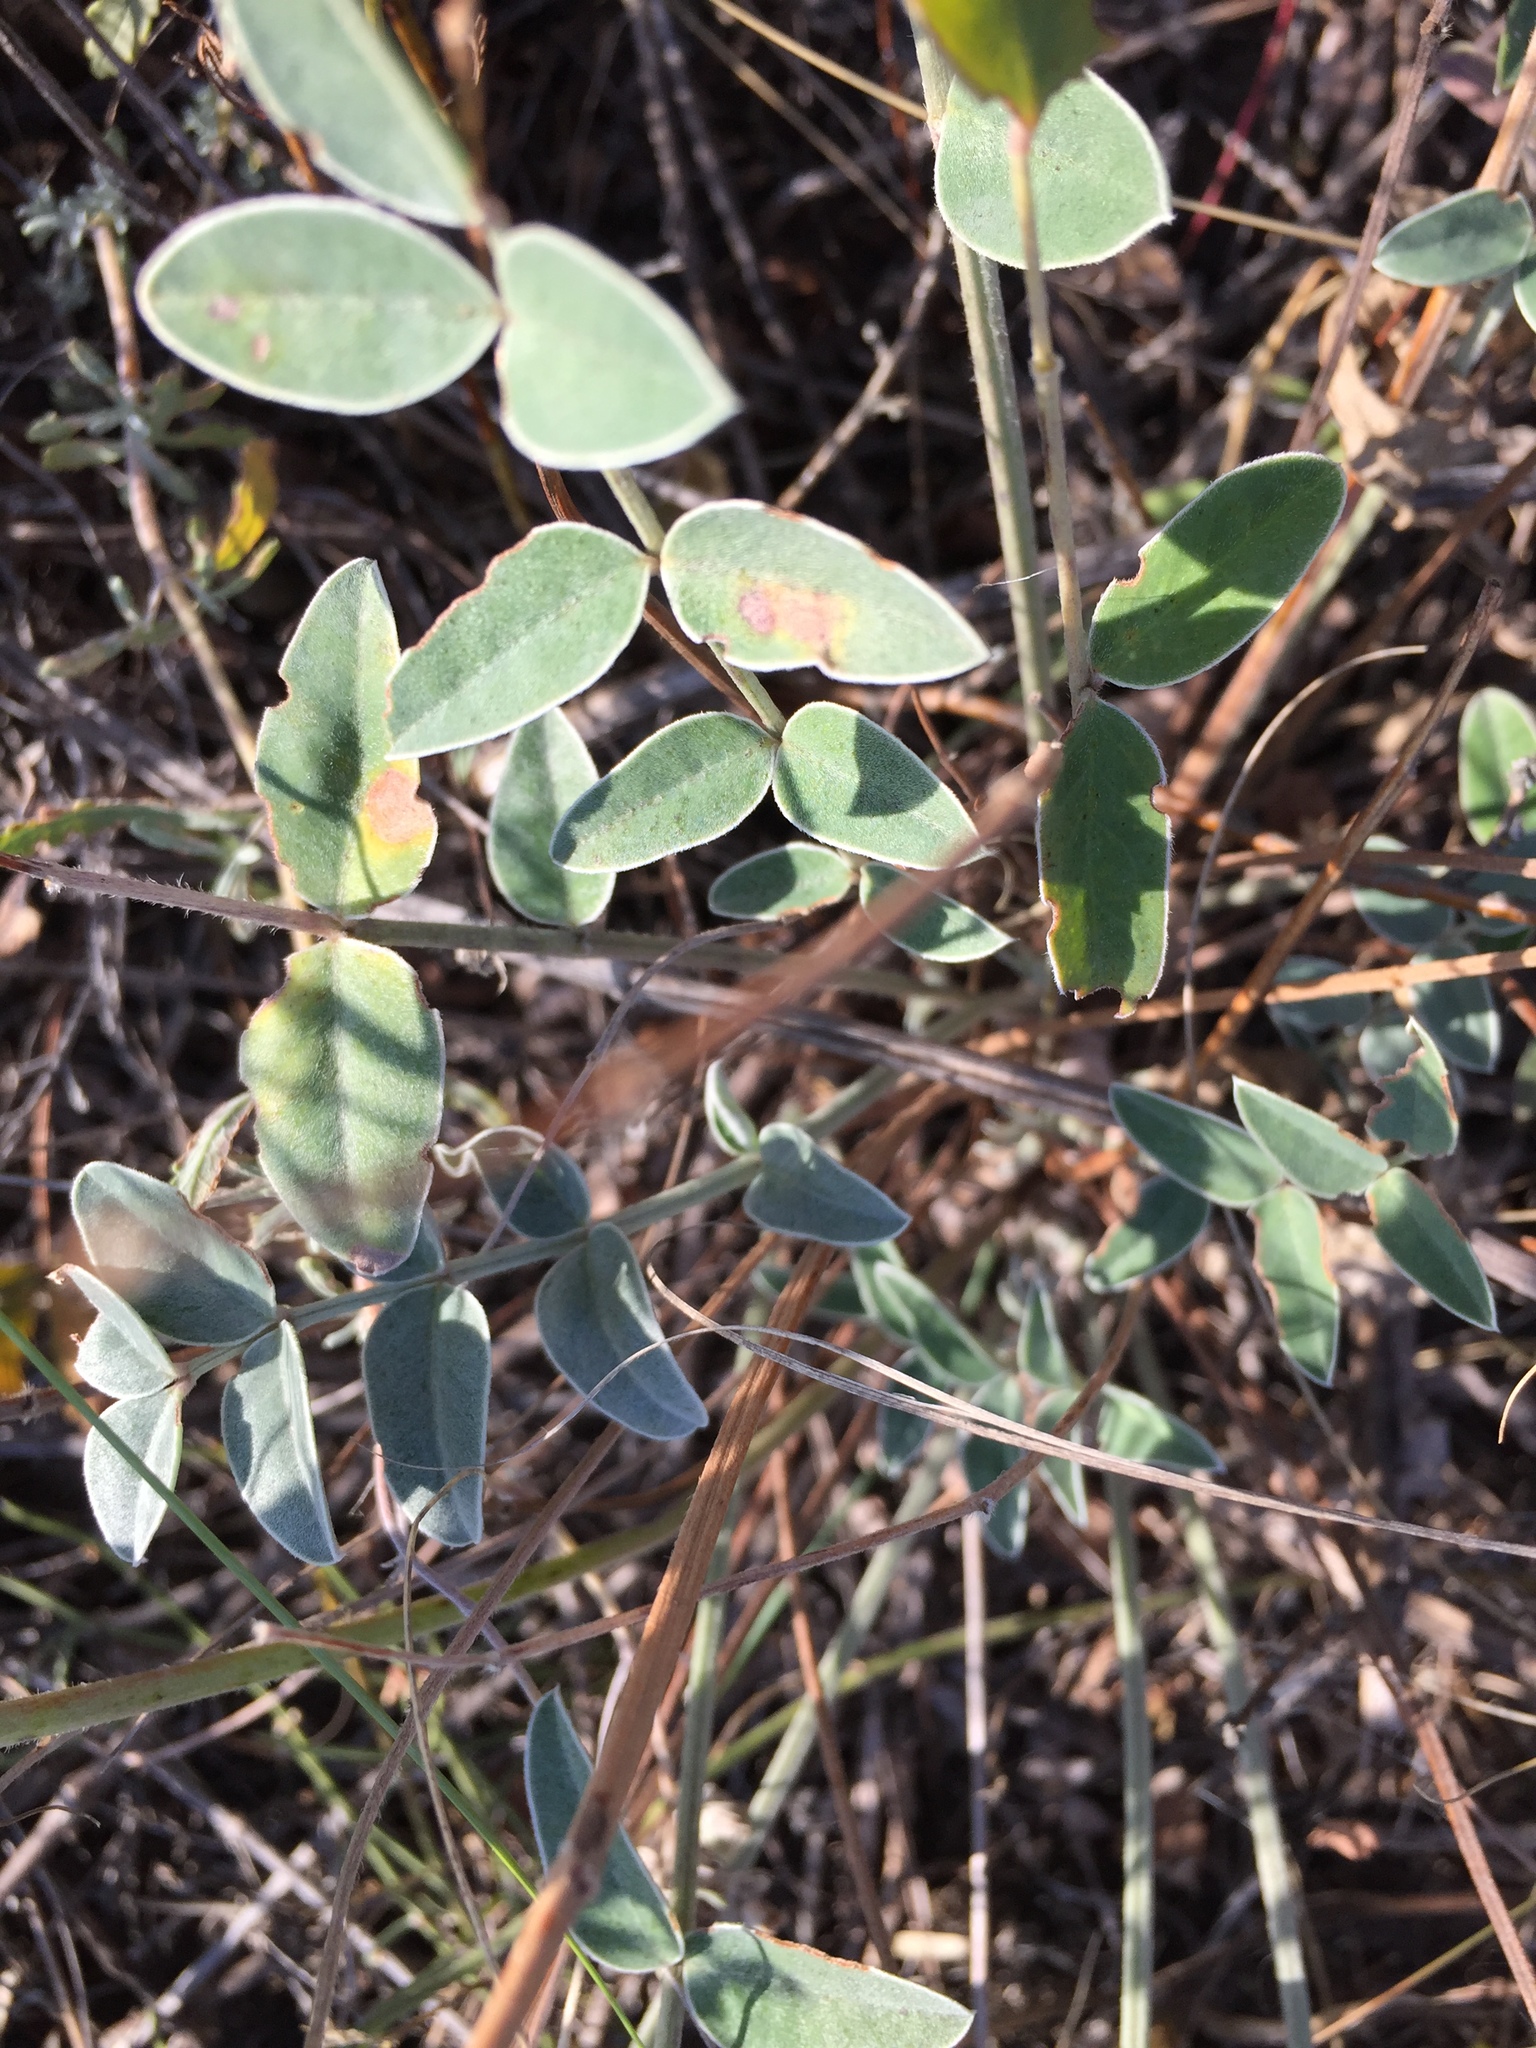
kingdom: Plantae
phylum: Tracheophyta
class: Magnoliopsida
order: Fabales
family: Fabaceae
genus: Hedysarum
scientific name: Hedysarum grandiflorum
